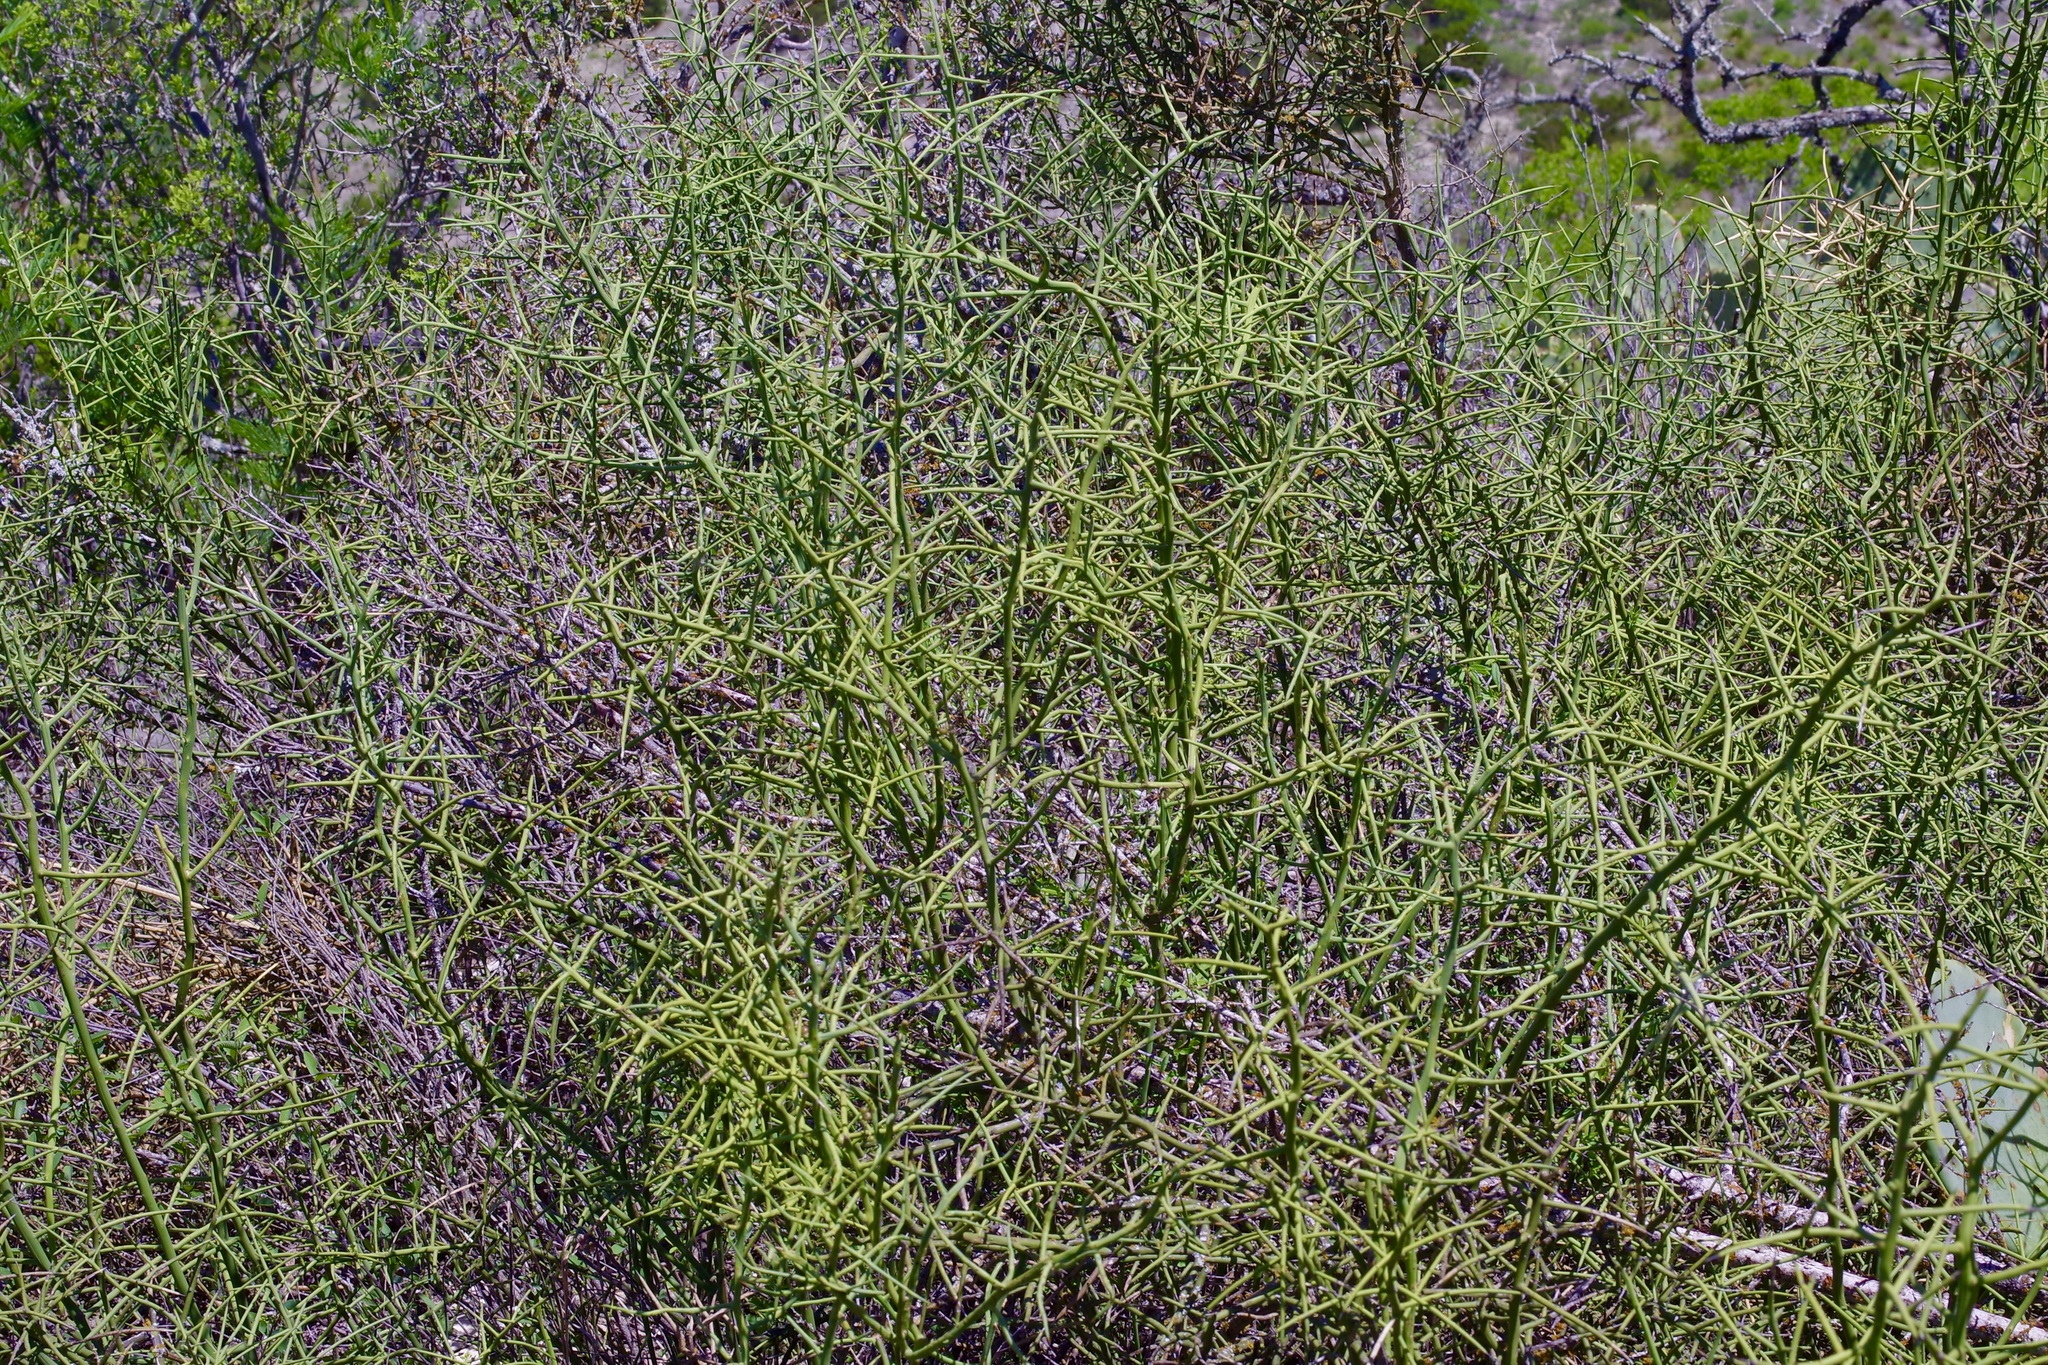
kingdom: Plantae
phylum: Tracheophyta
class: Magnoliopsida
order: Brassicales
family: Koeberliniaceae
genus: Koeberlinia
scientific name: Koeberlinia spinosa
